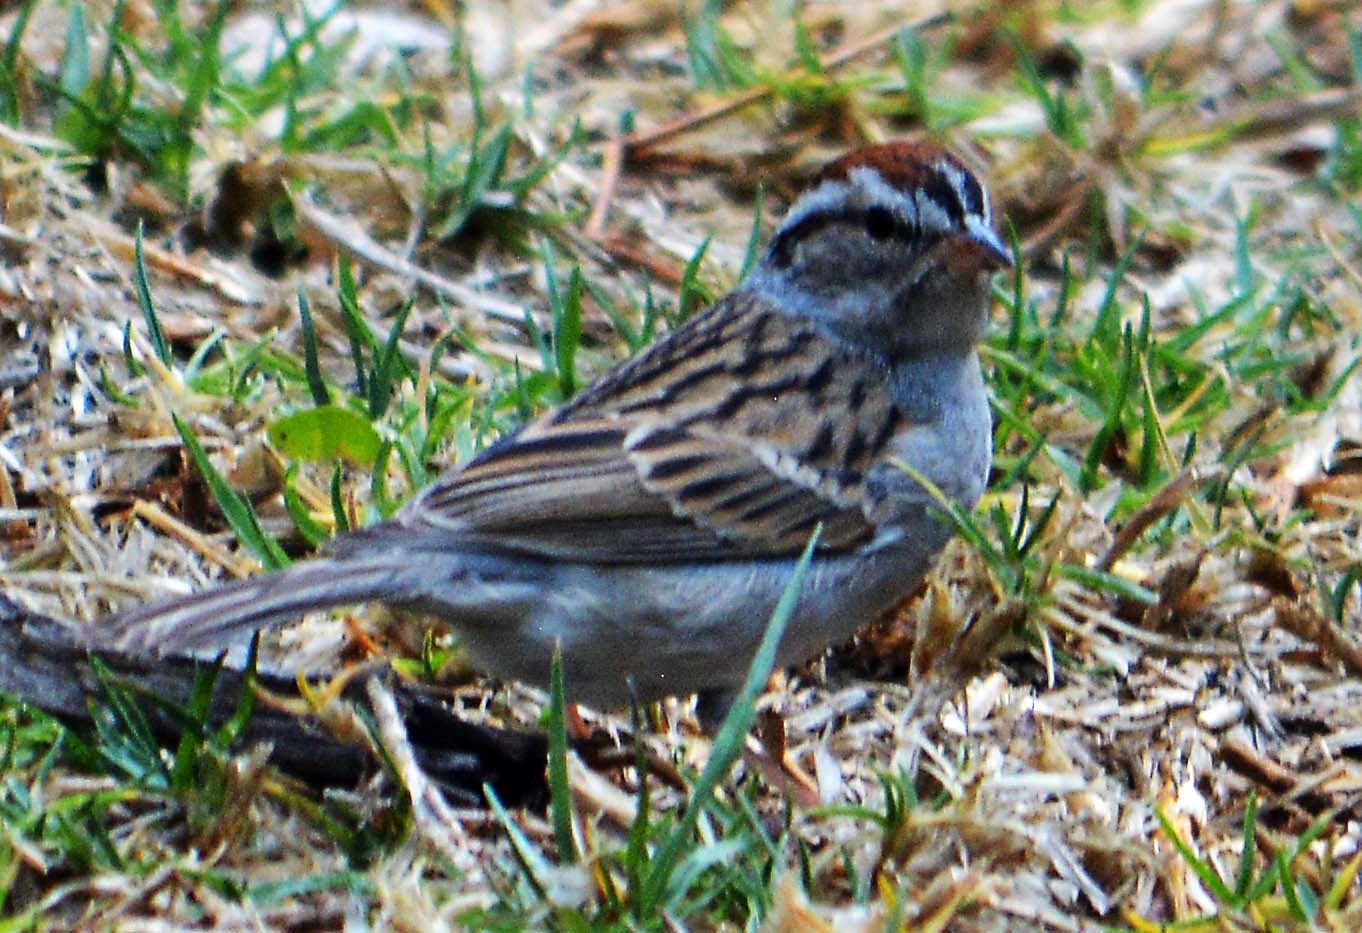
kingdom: Animalia
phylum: Chordata
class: Aves
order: Passeriformes
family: Passerellidae
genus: Spizella
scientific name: Spizella passerina
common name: Chipping sparrow
